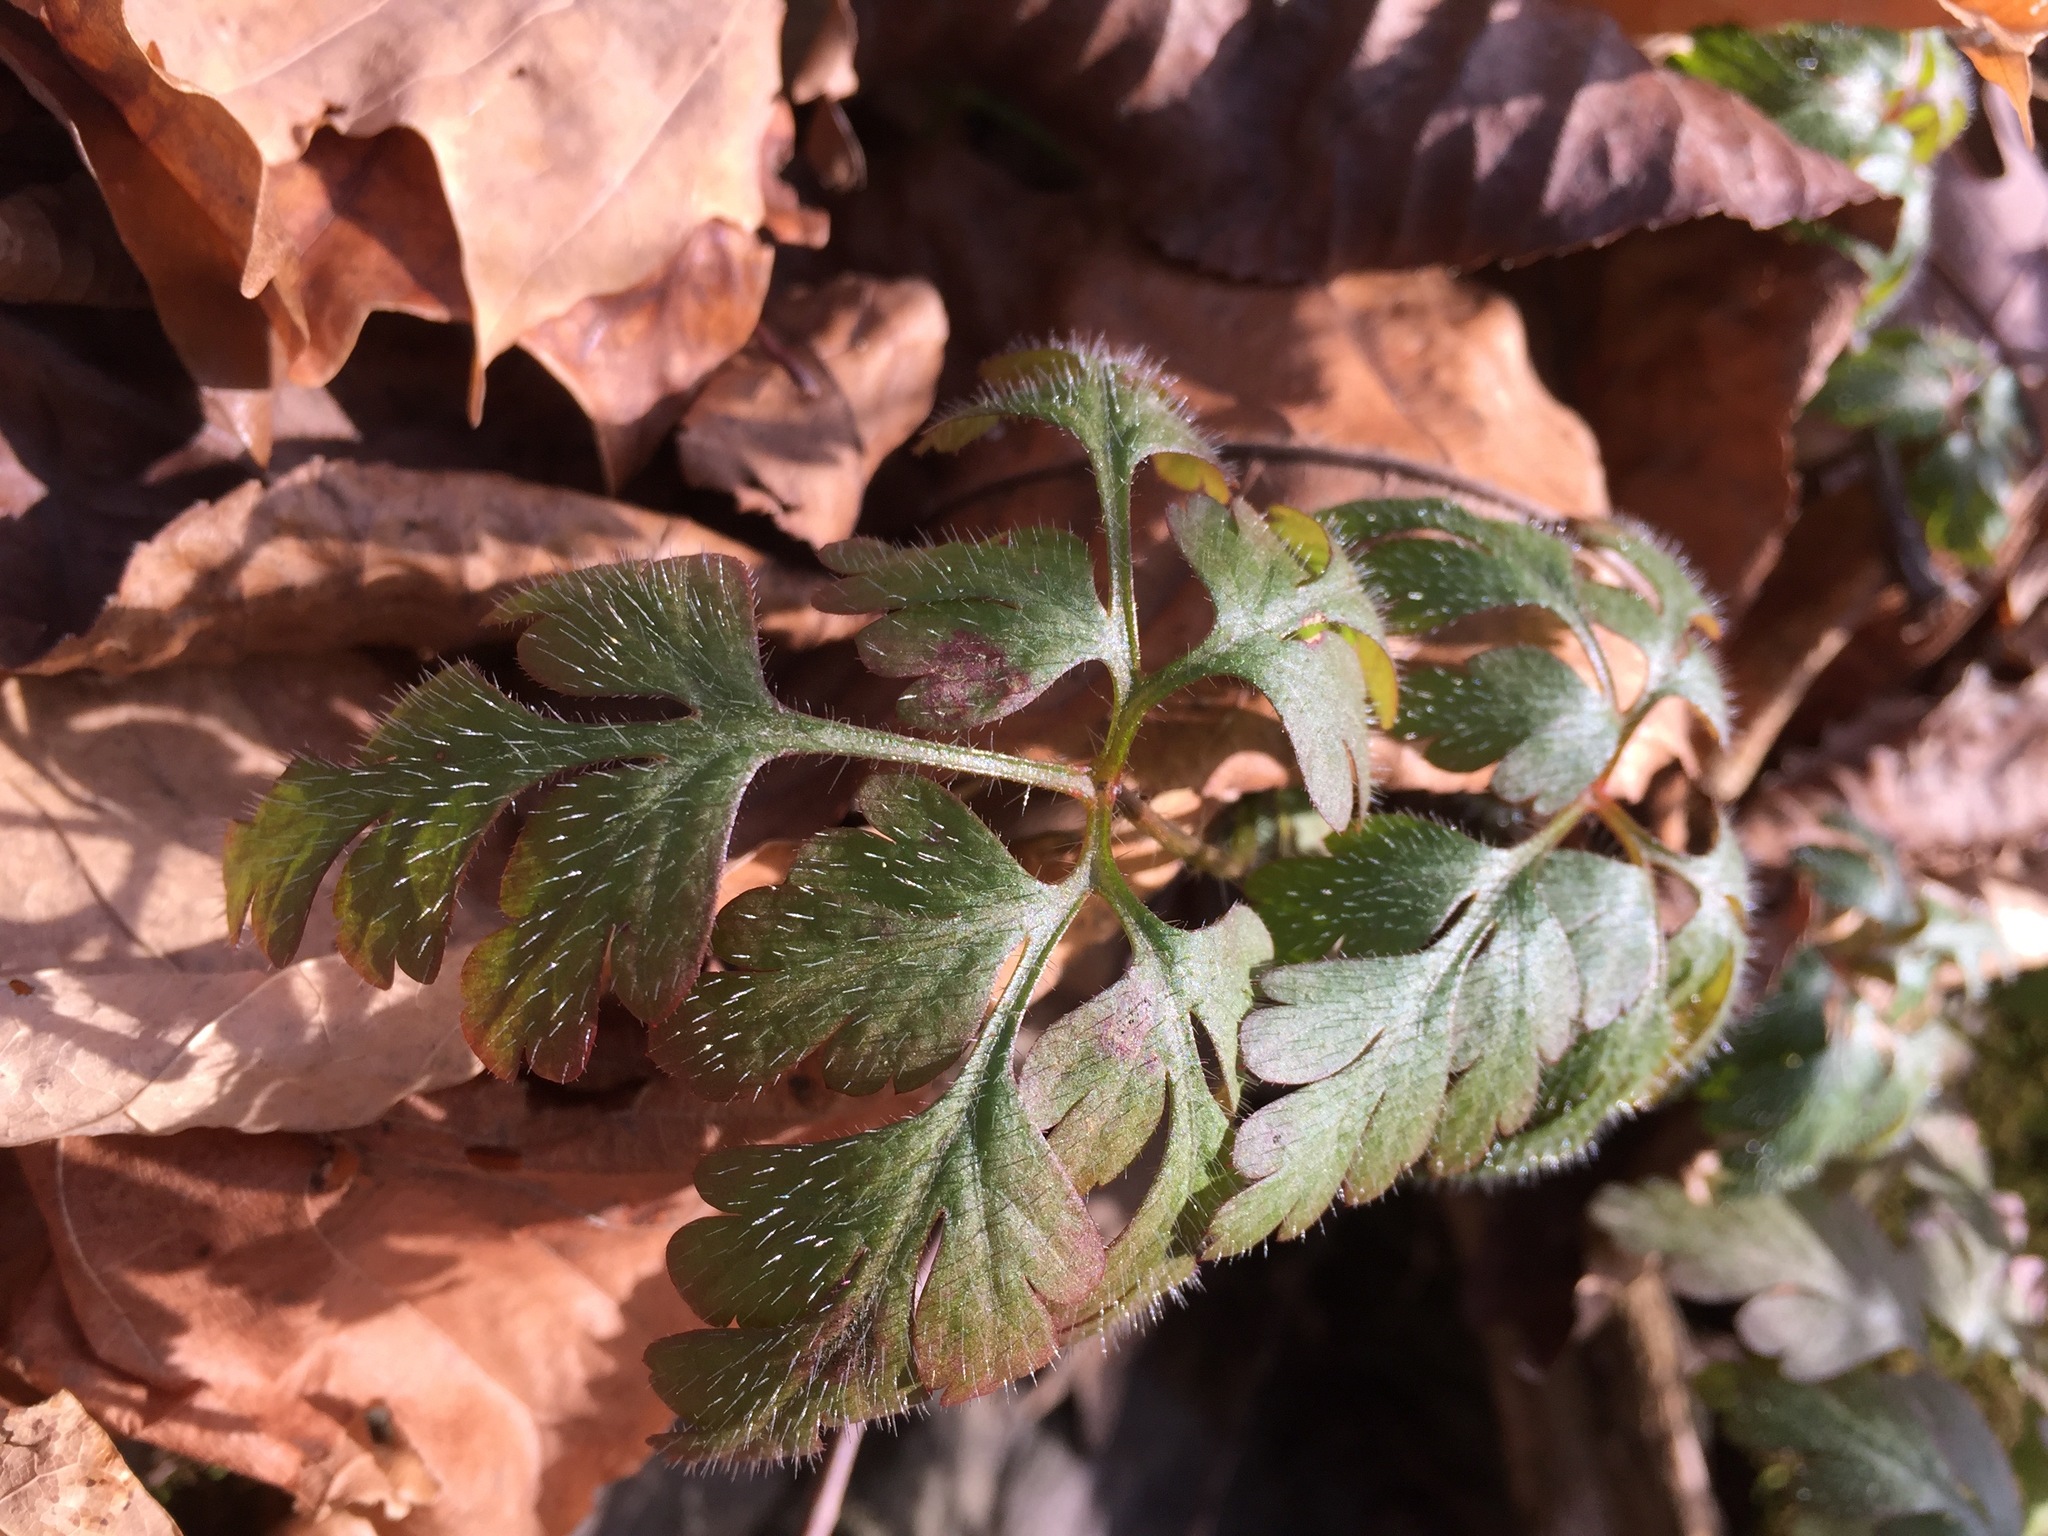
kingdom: Plantae
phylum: Tracheophyta
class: Magnoliopsida
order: Geraniales
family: Geraniaceae
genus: Geranium
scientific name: Geranium robertianum
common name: Herb-robert
